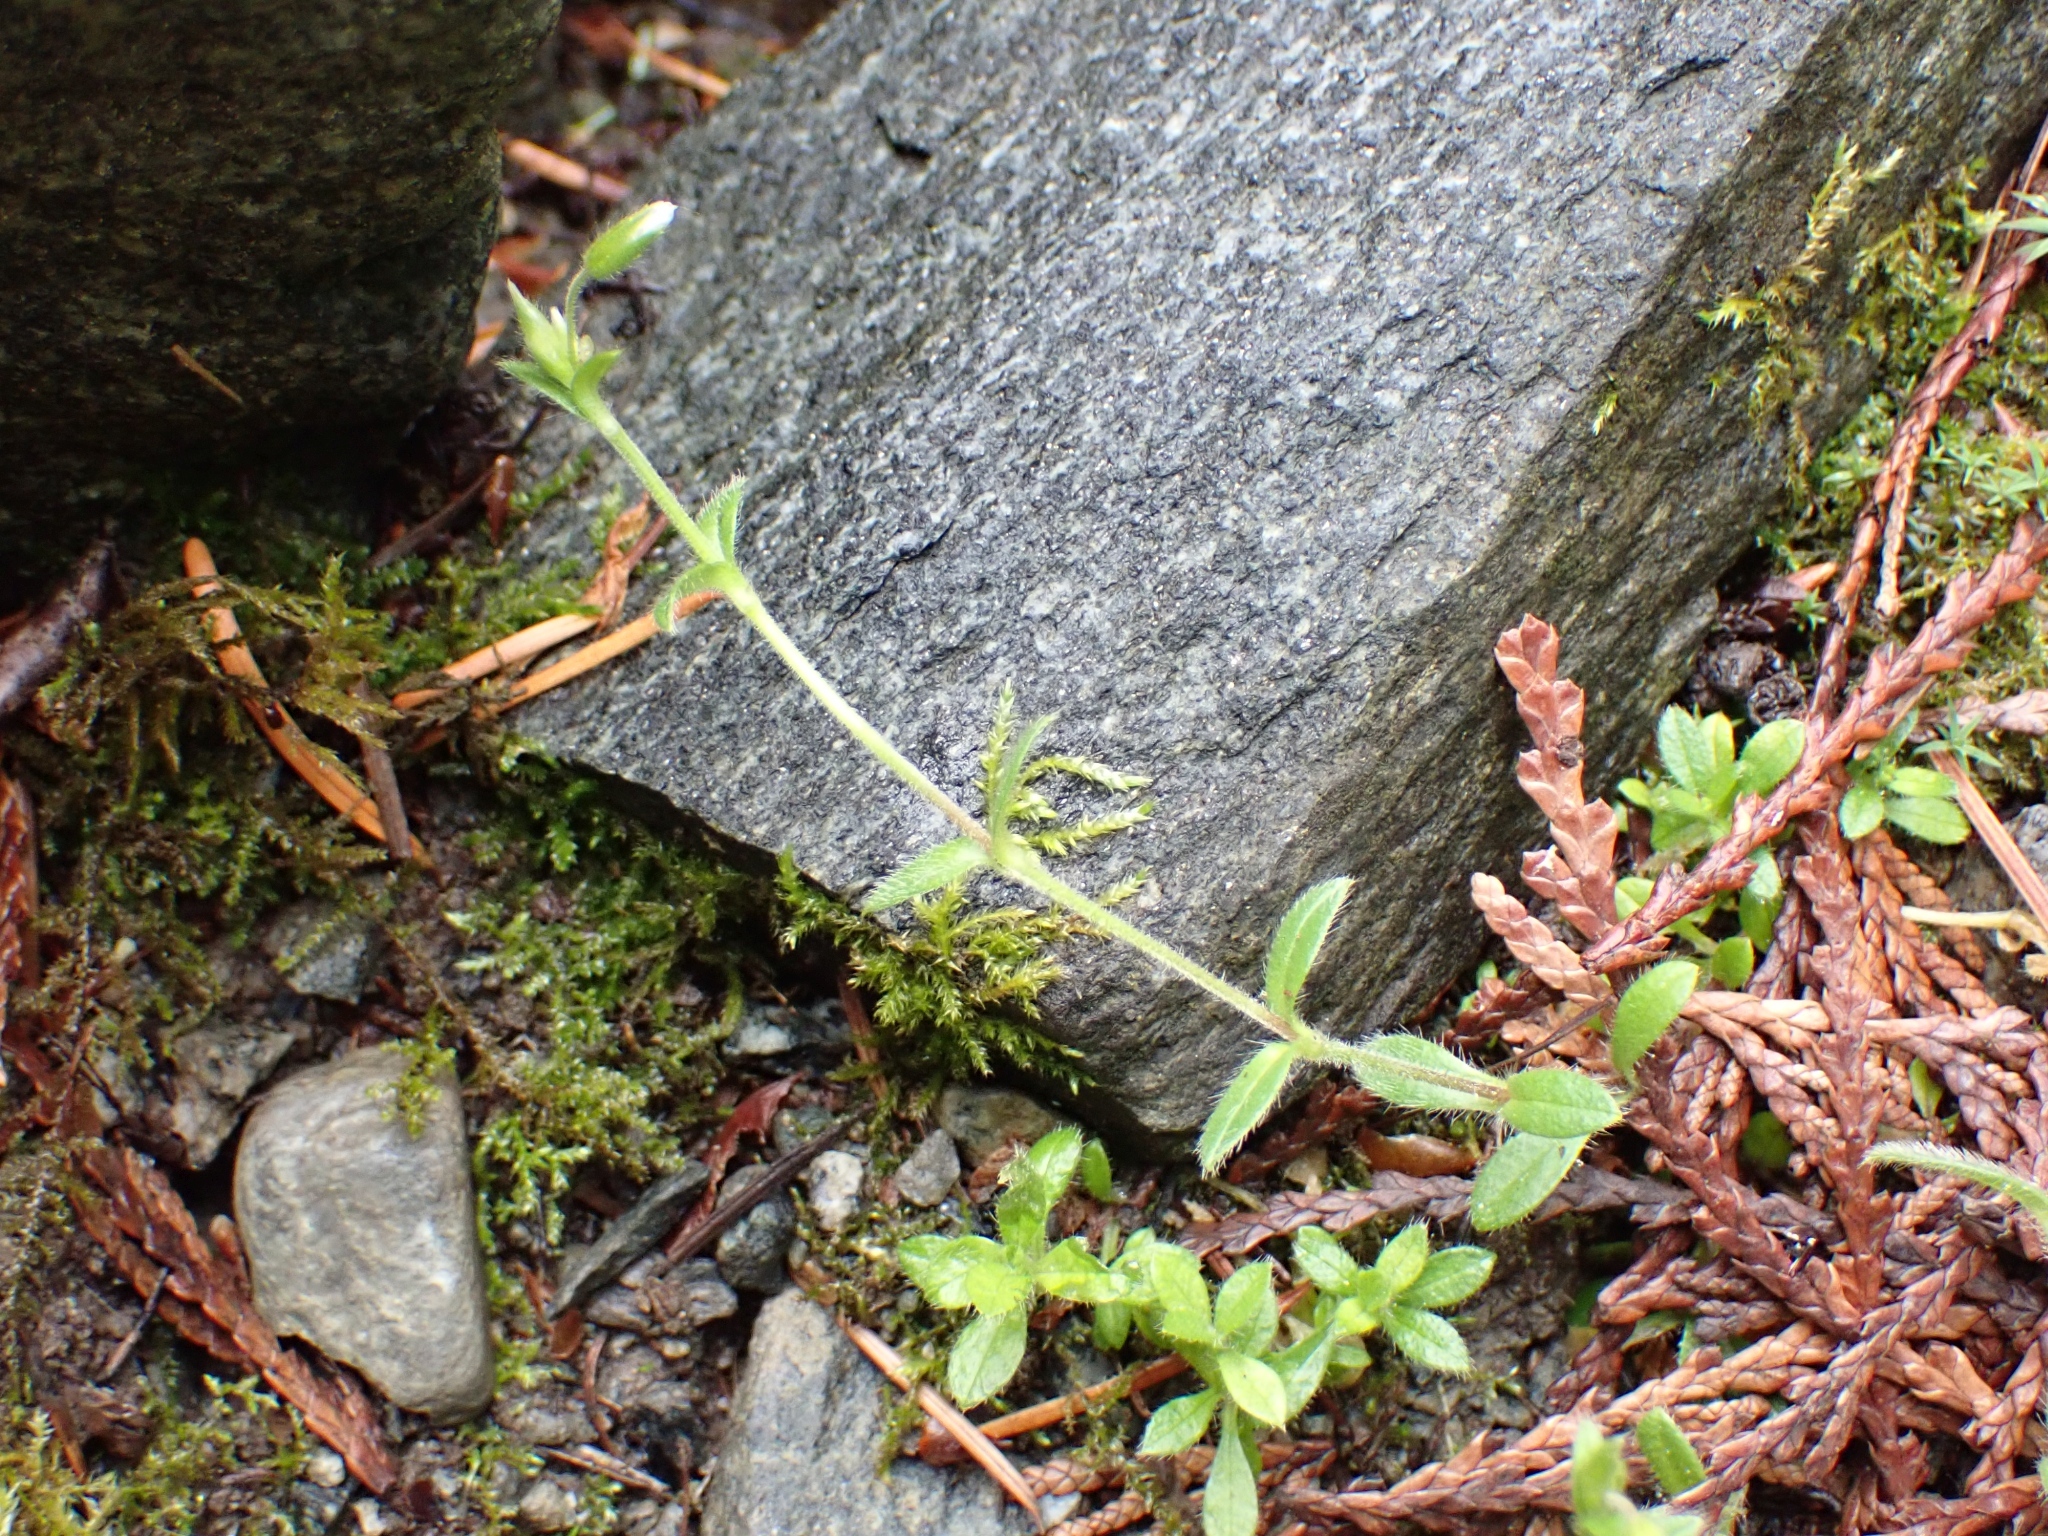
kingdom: Plantae
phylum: Tracheophyta
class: Magnoliopsida
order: Caryophyllales
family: Caryophyllaceae
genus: Cerastium
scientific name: Cerastium fontanum
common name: Common mouse-ear
